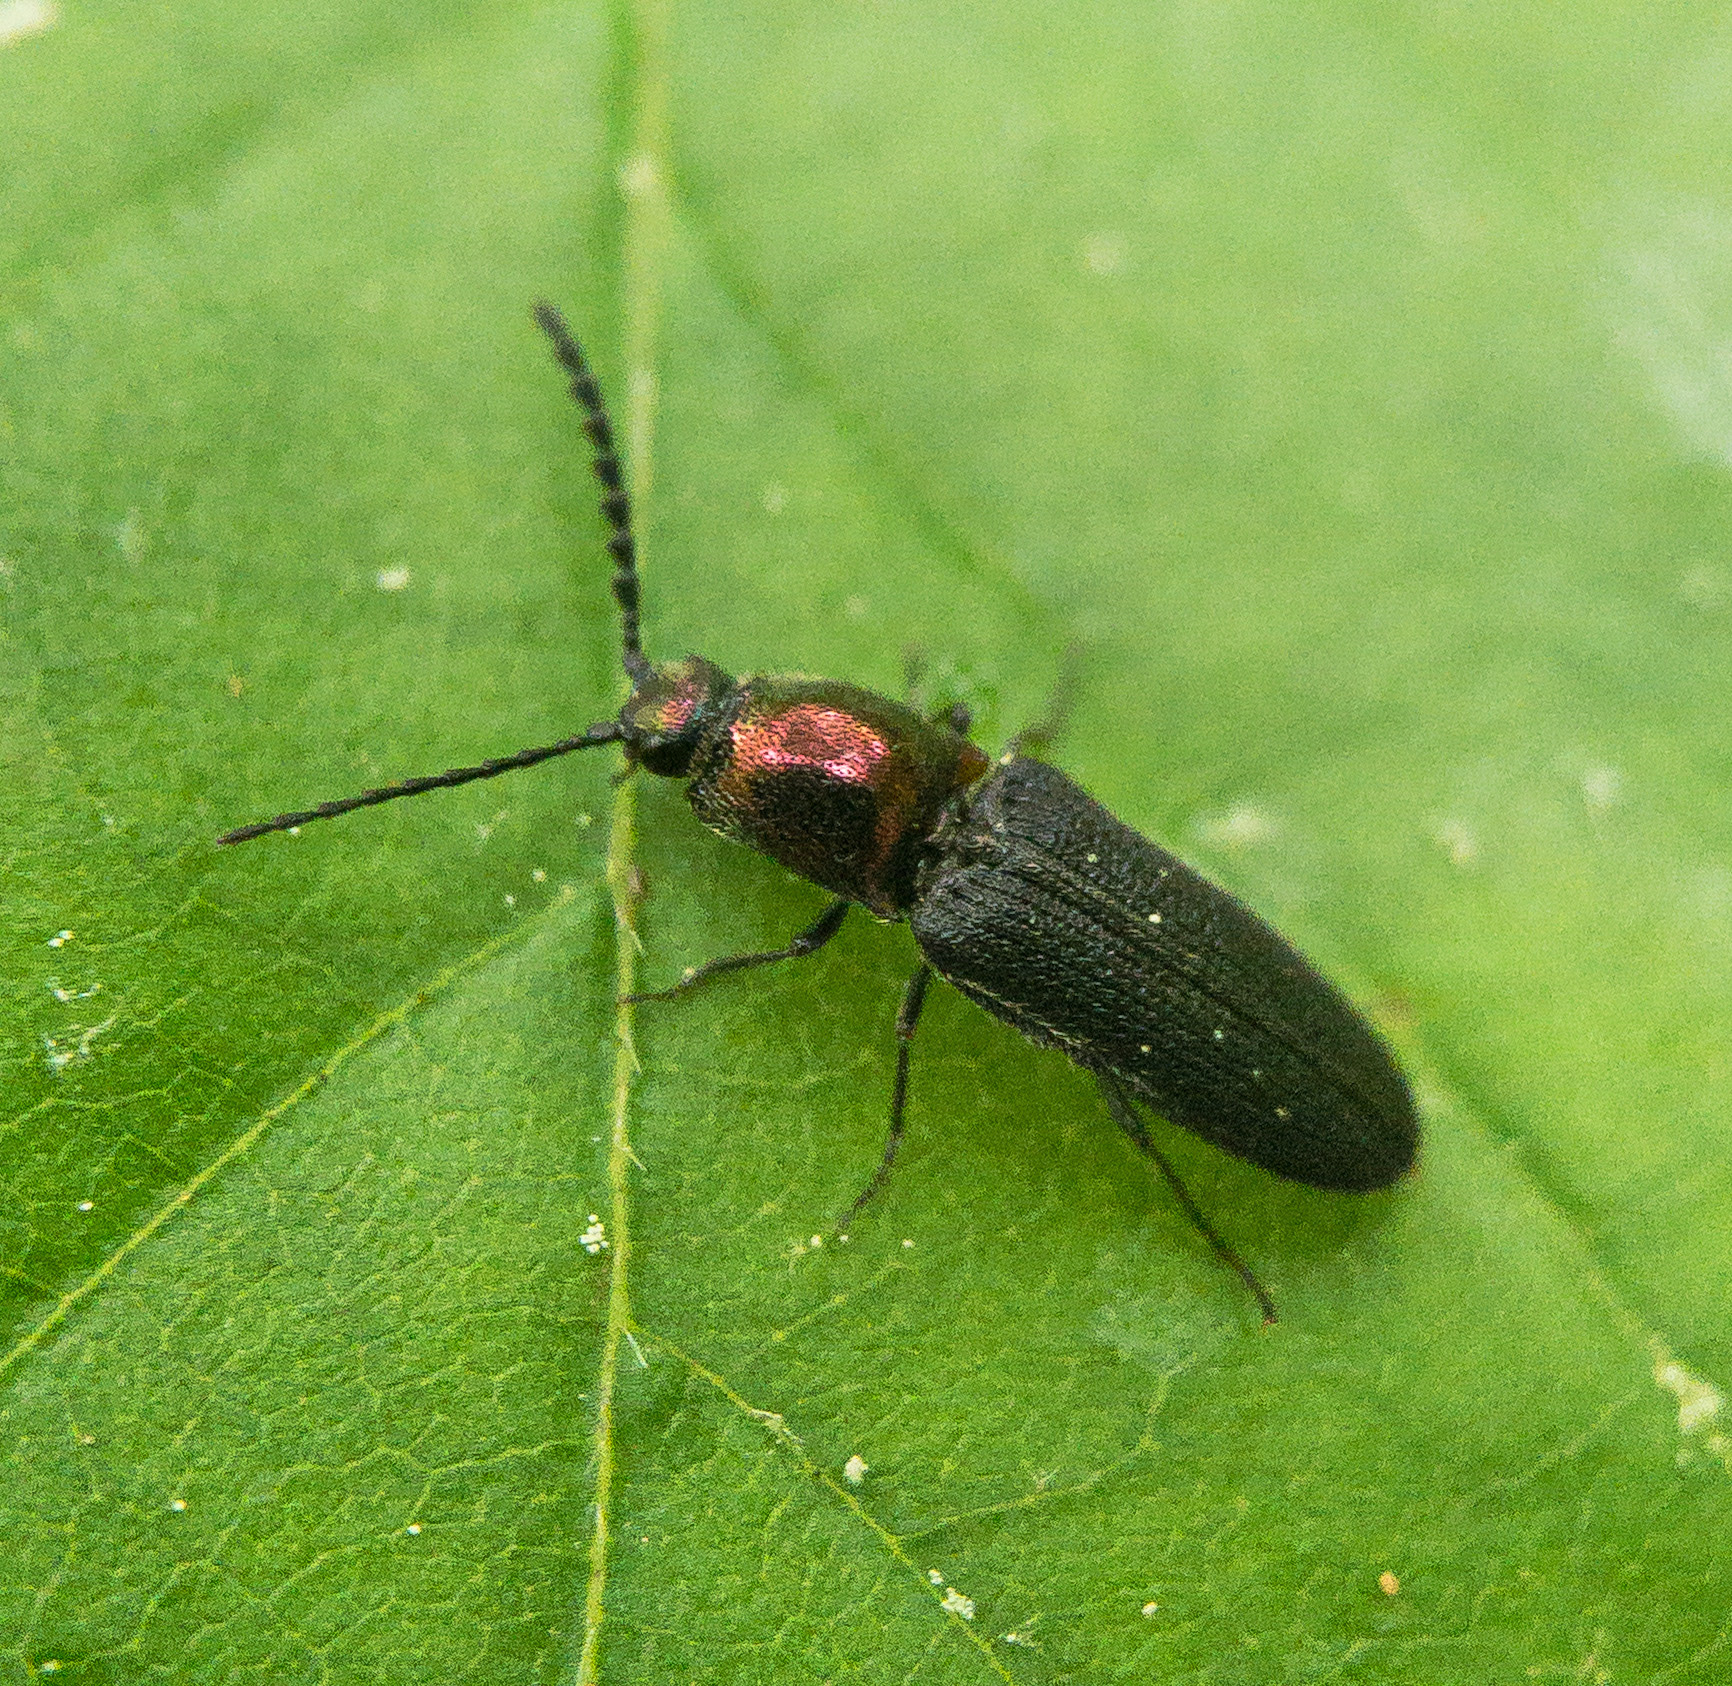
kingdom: Animalia
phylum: Arthropoda
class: Insecta
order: Coleoptera
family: Elateridae
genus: Limonius
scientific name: Limonius aurifer
